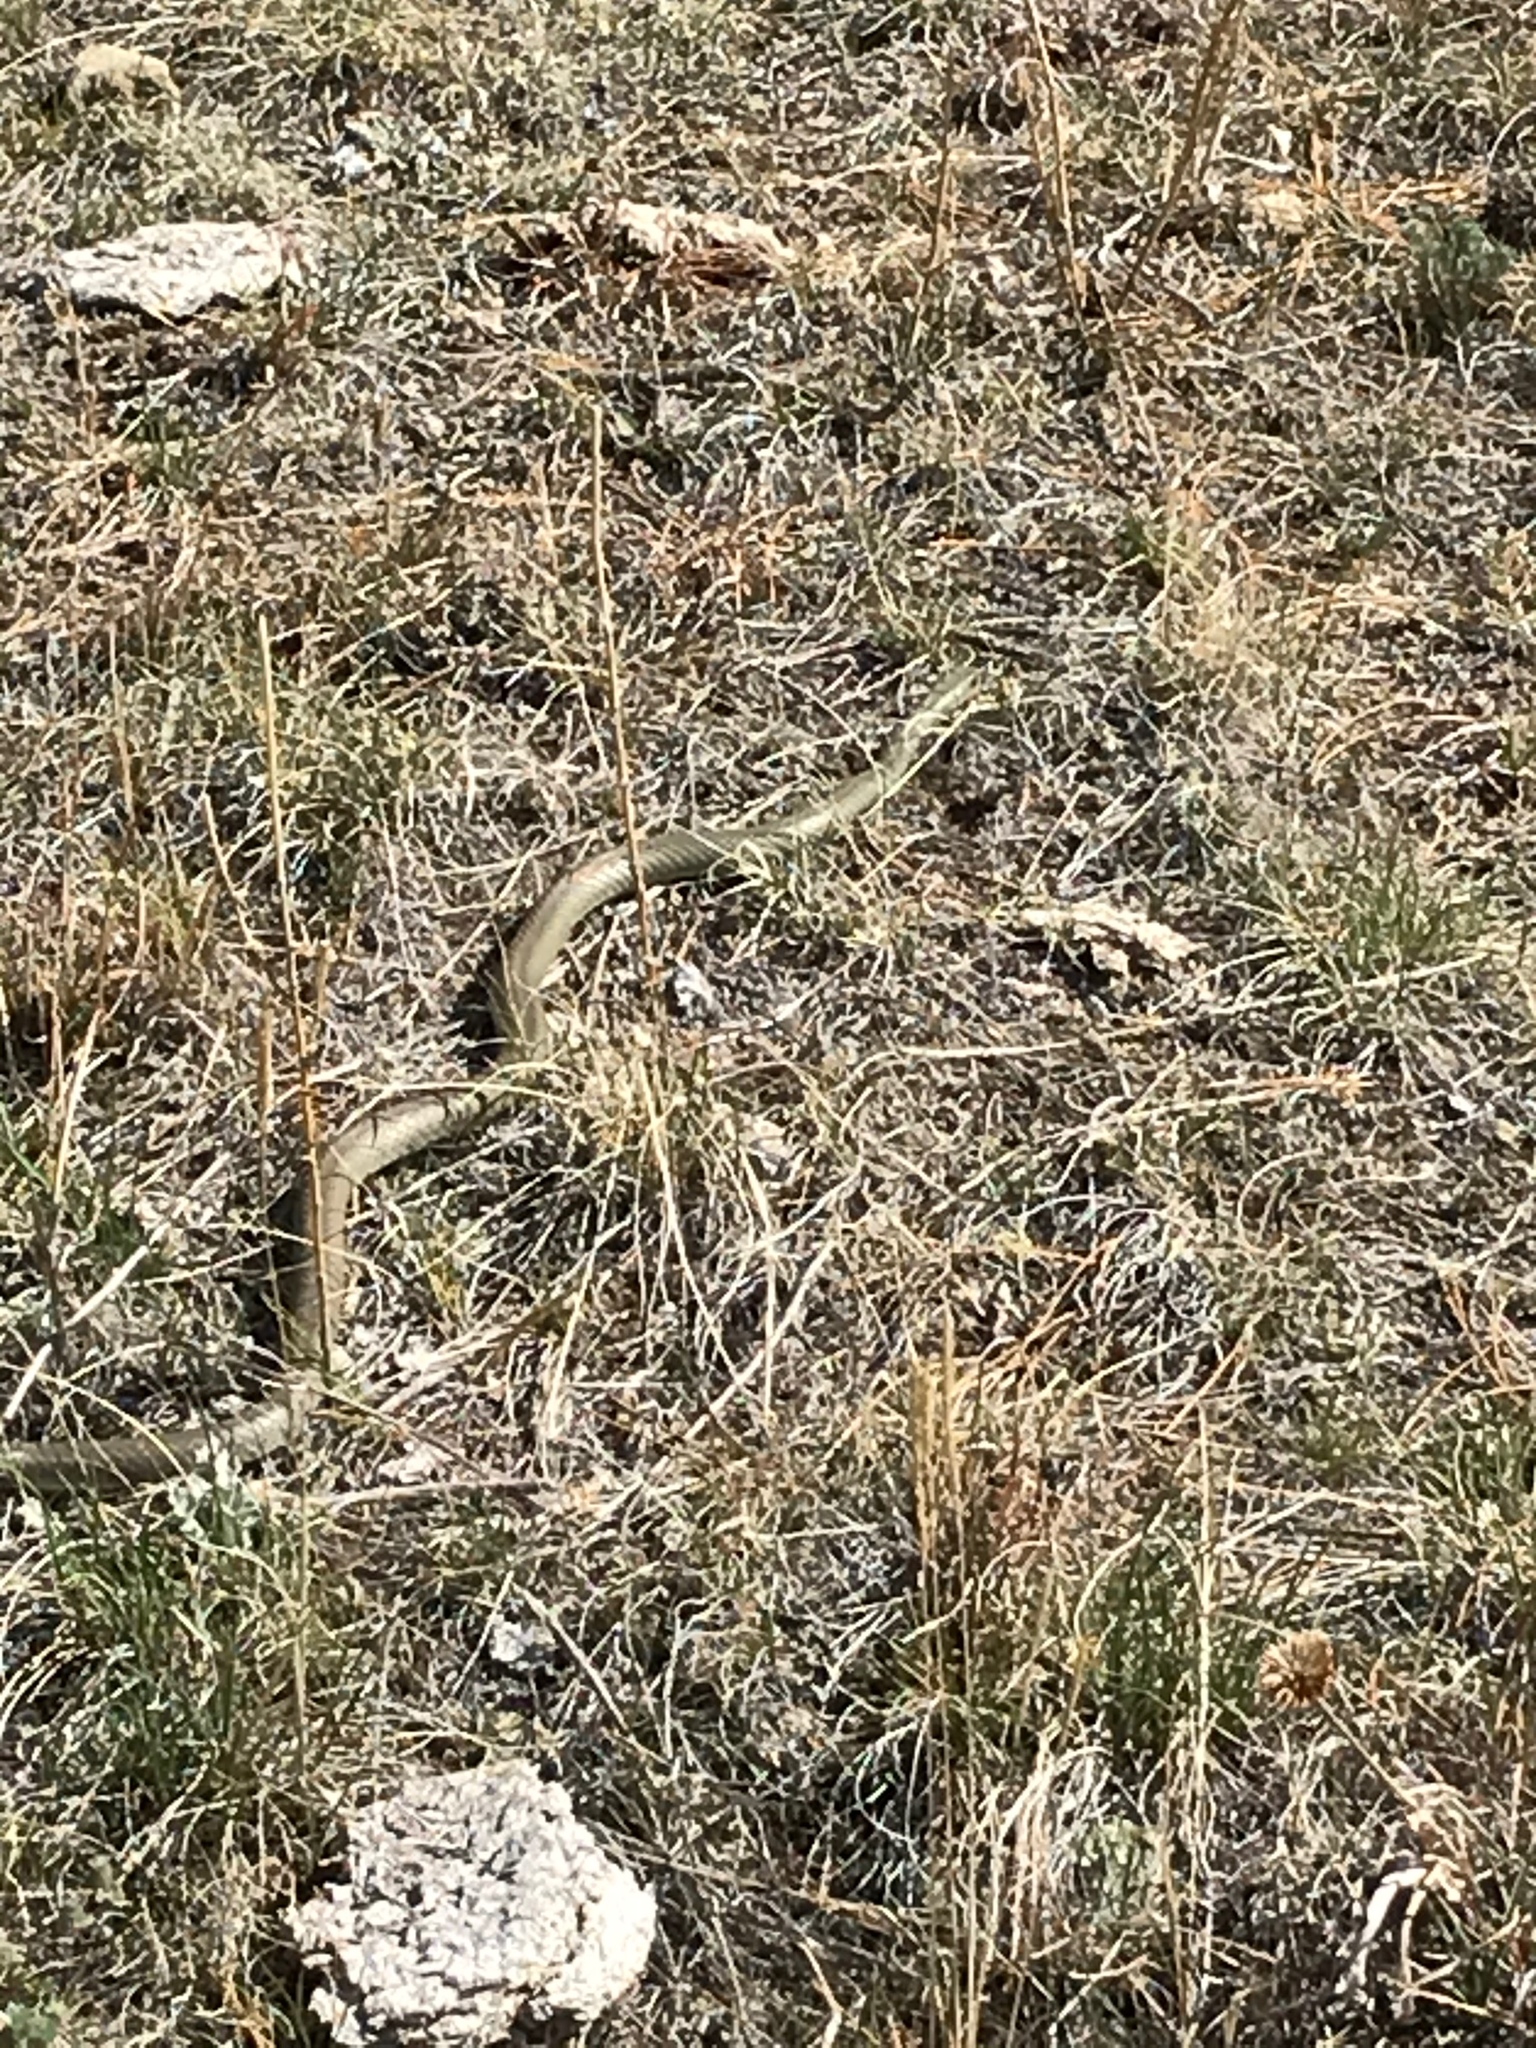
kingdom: Animalia
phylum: Chordata
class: Squamata
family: Colubridae
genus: Coluber
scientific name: Coluber constrictor
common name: Eastern racer
